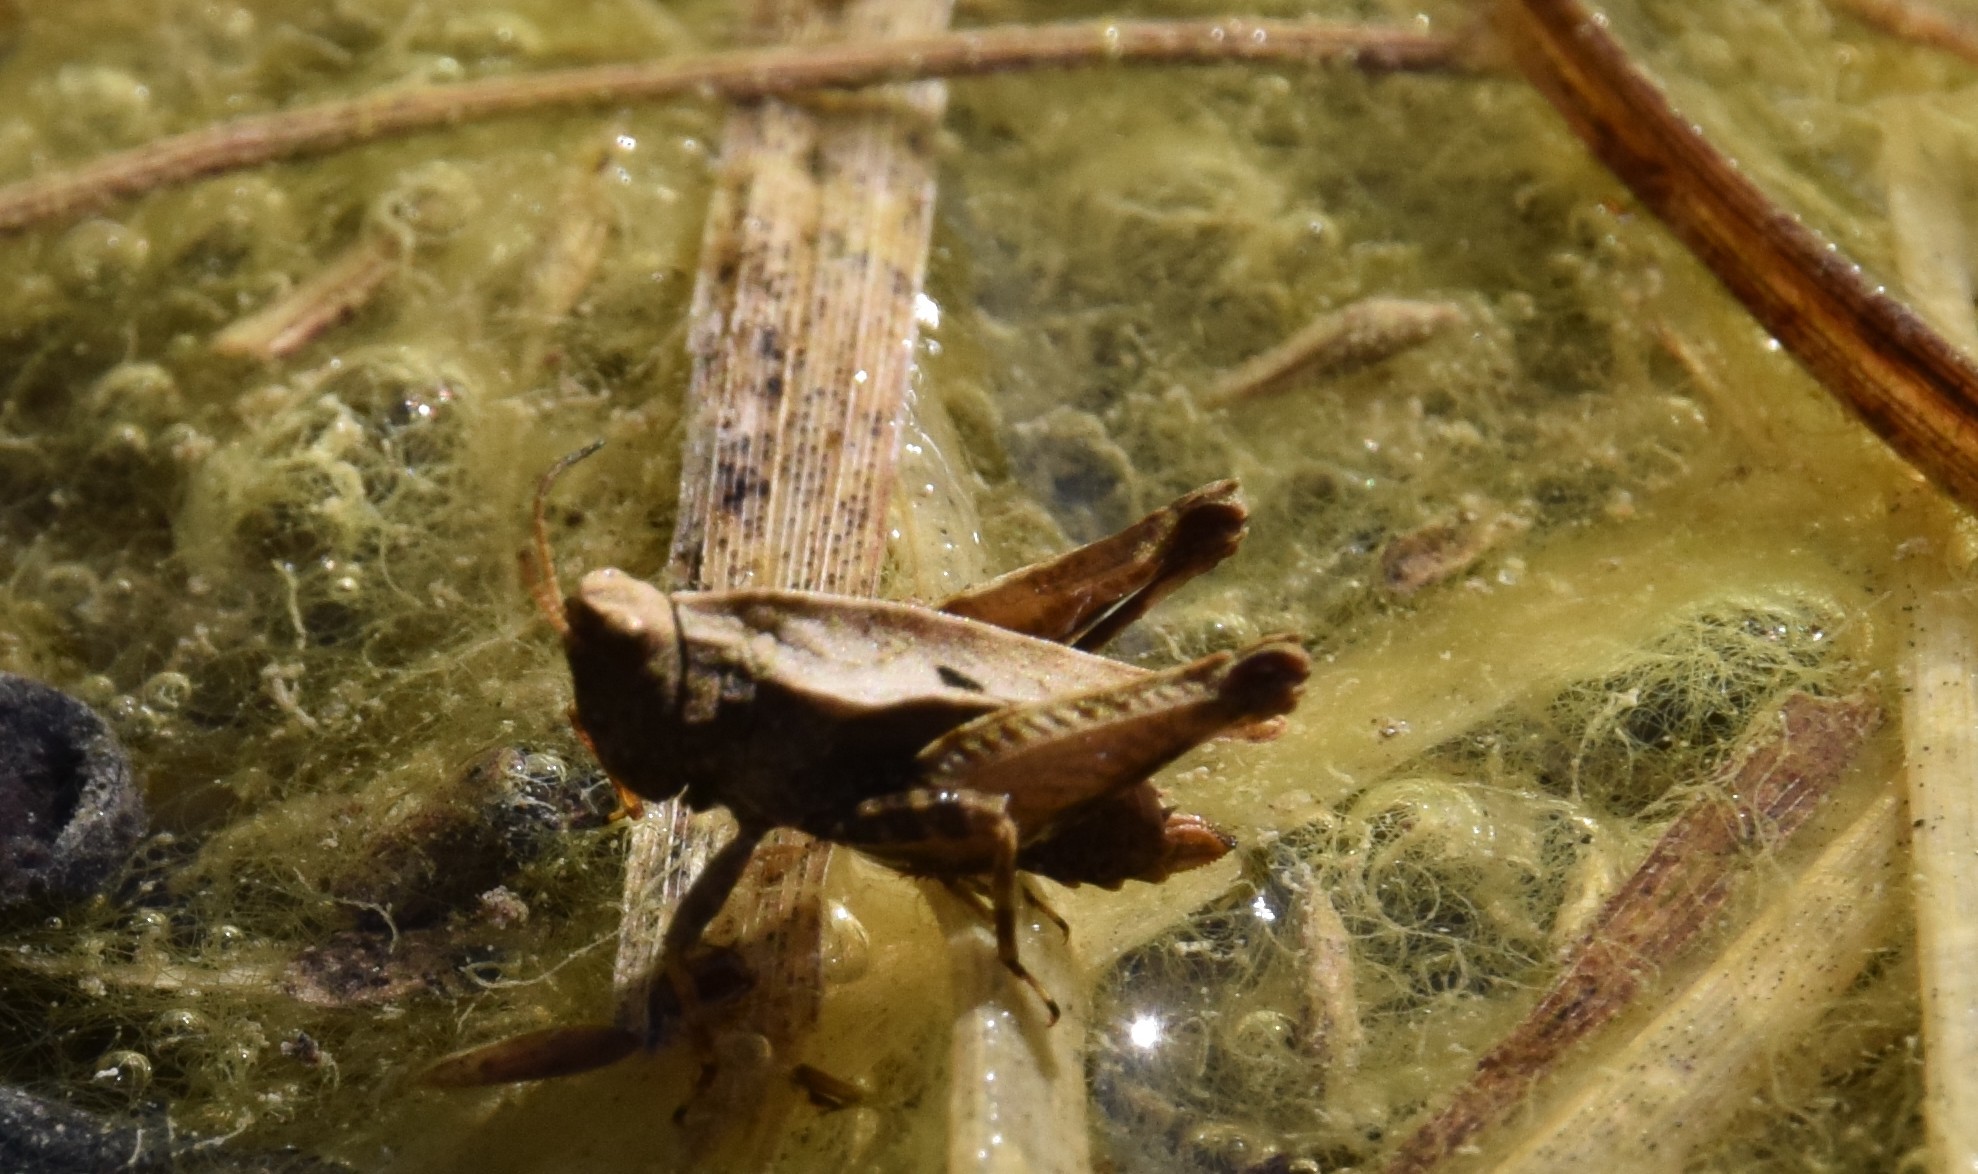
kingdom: Animalia
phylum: Arthropoda
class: Insecta
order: Orthoptera
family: Tetrigidae
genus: Tetrix
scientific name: Tetrix undulata
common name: Common groundhopper
